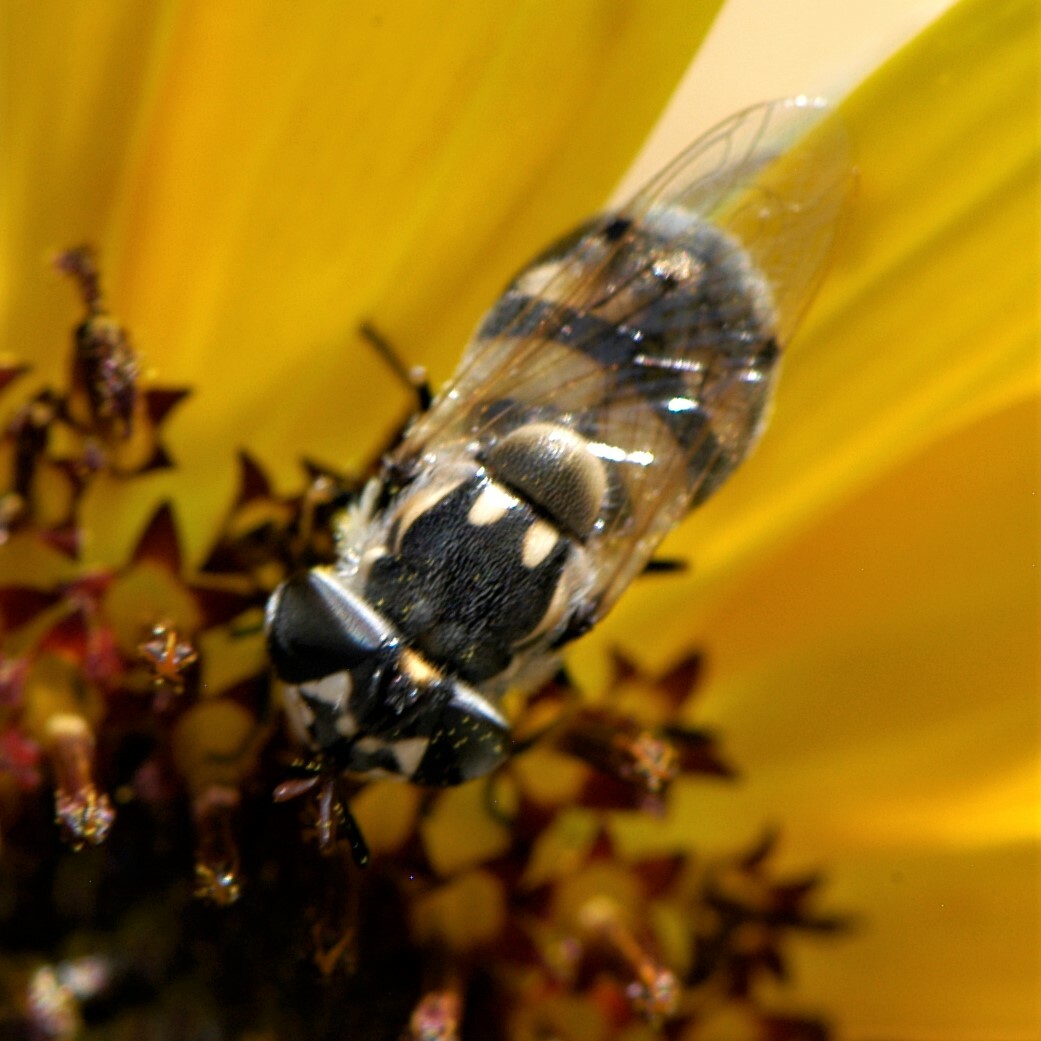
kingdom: Animalia
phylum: Arthropoda
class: Insecta
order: Diptera
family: Syrphidae
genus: Copestylum
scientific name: Copestylum caudatum
